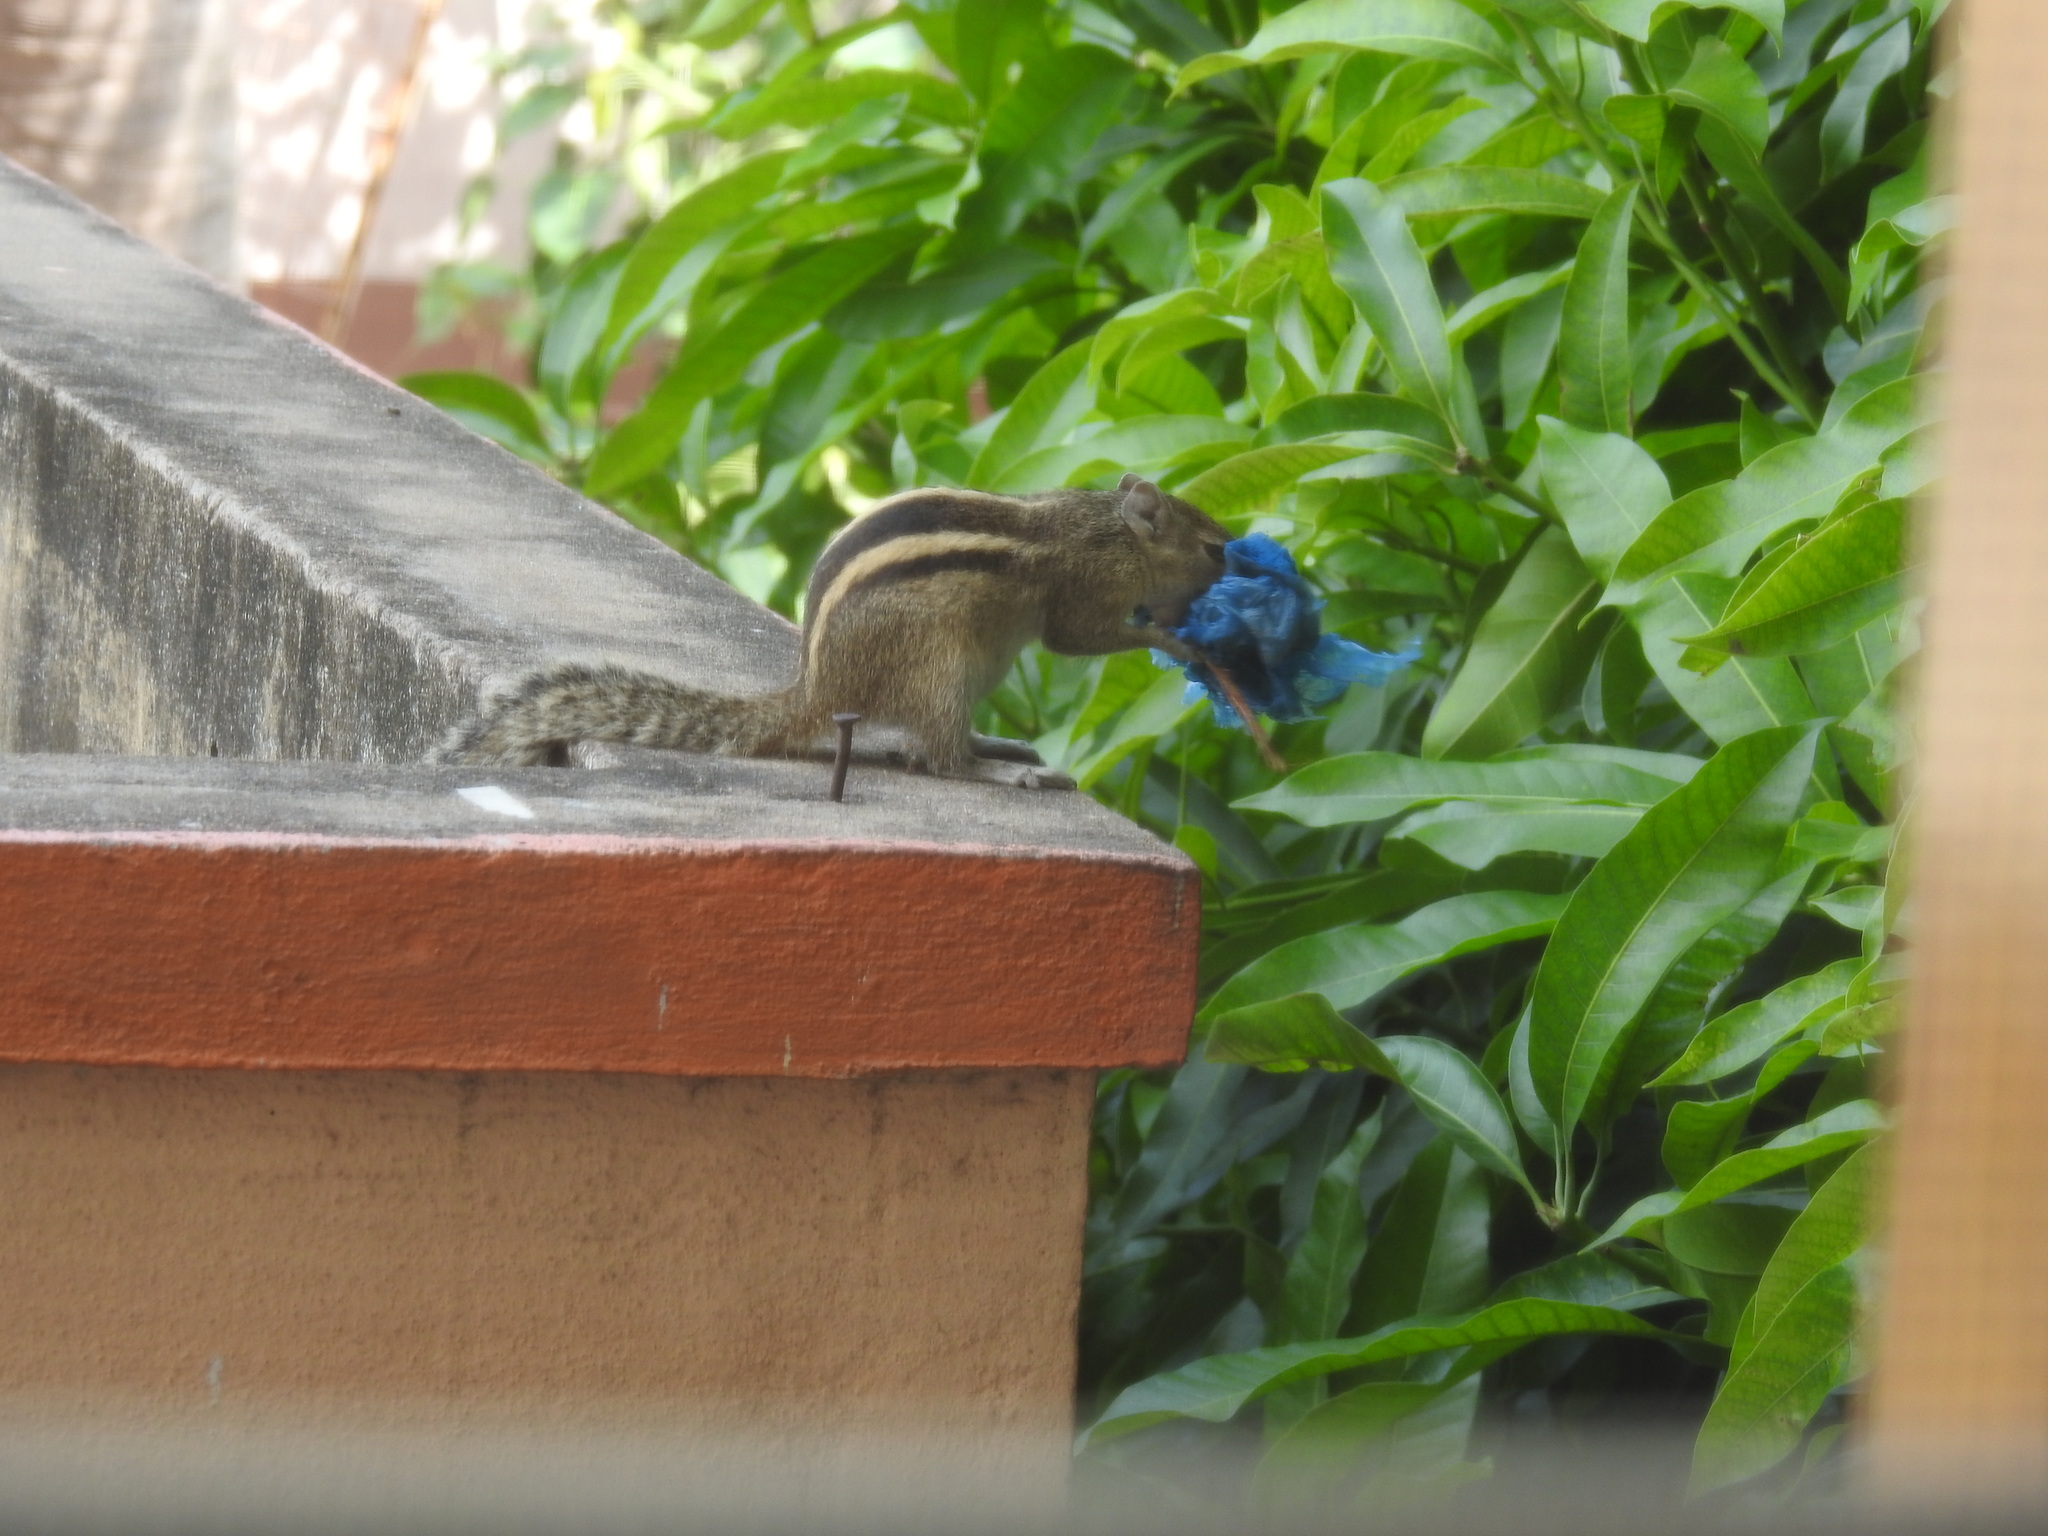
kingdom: Animalia
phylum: Chordata
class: Mammalia
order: Rodentia
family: Sciuridae
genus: Funambulus
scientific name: Funambulus palmarum
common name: Indian palm squirrel
